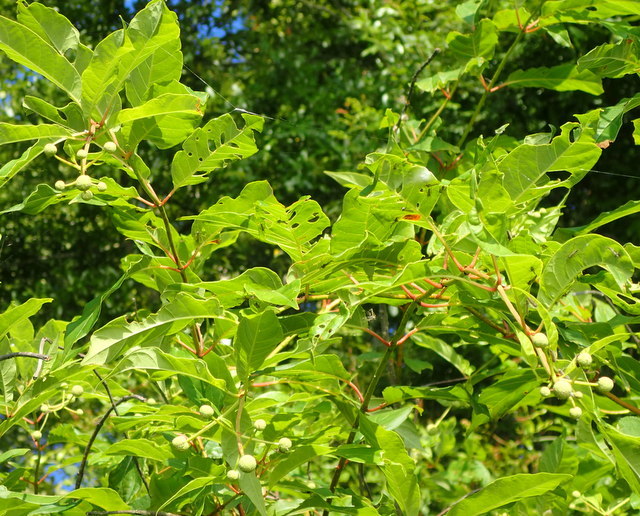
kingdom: Plantae
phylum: Tracheophyta
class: Magnoliopsida
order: Gentianales
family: Rubiaceae
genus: Cephalanthus
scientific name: Cephalanthus occidentalis
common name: Button-willow
